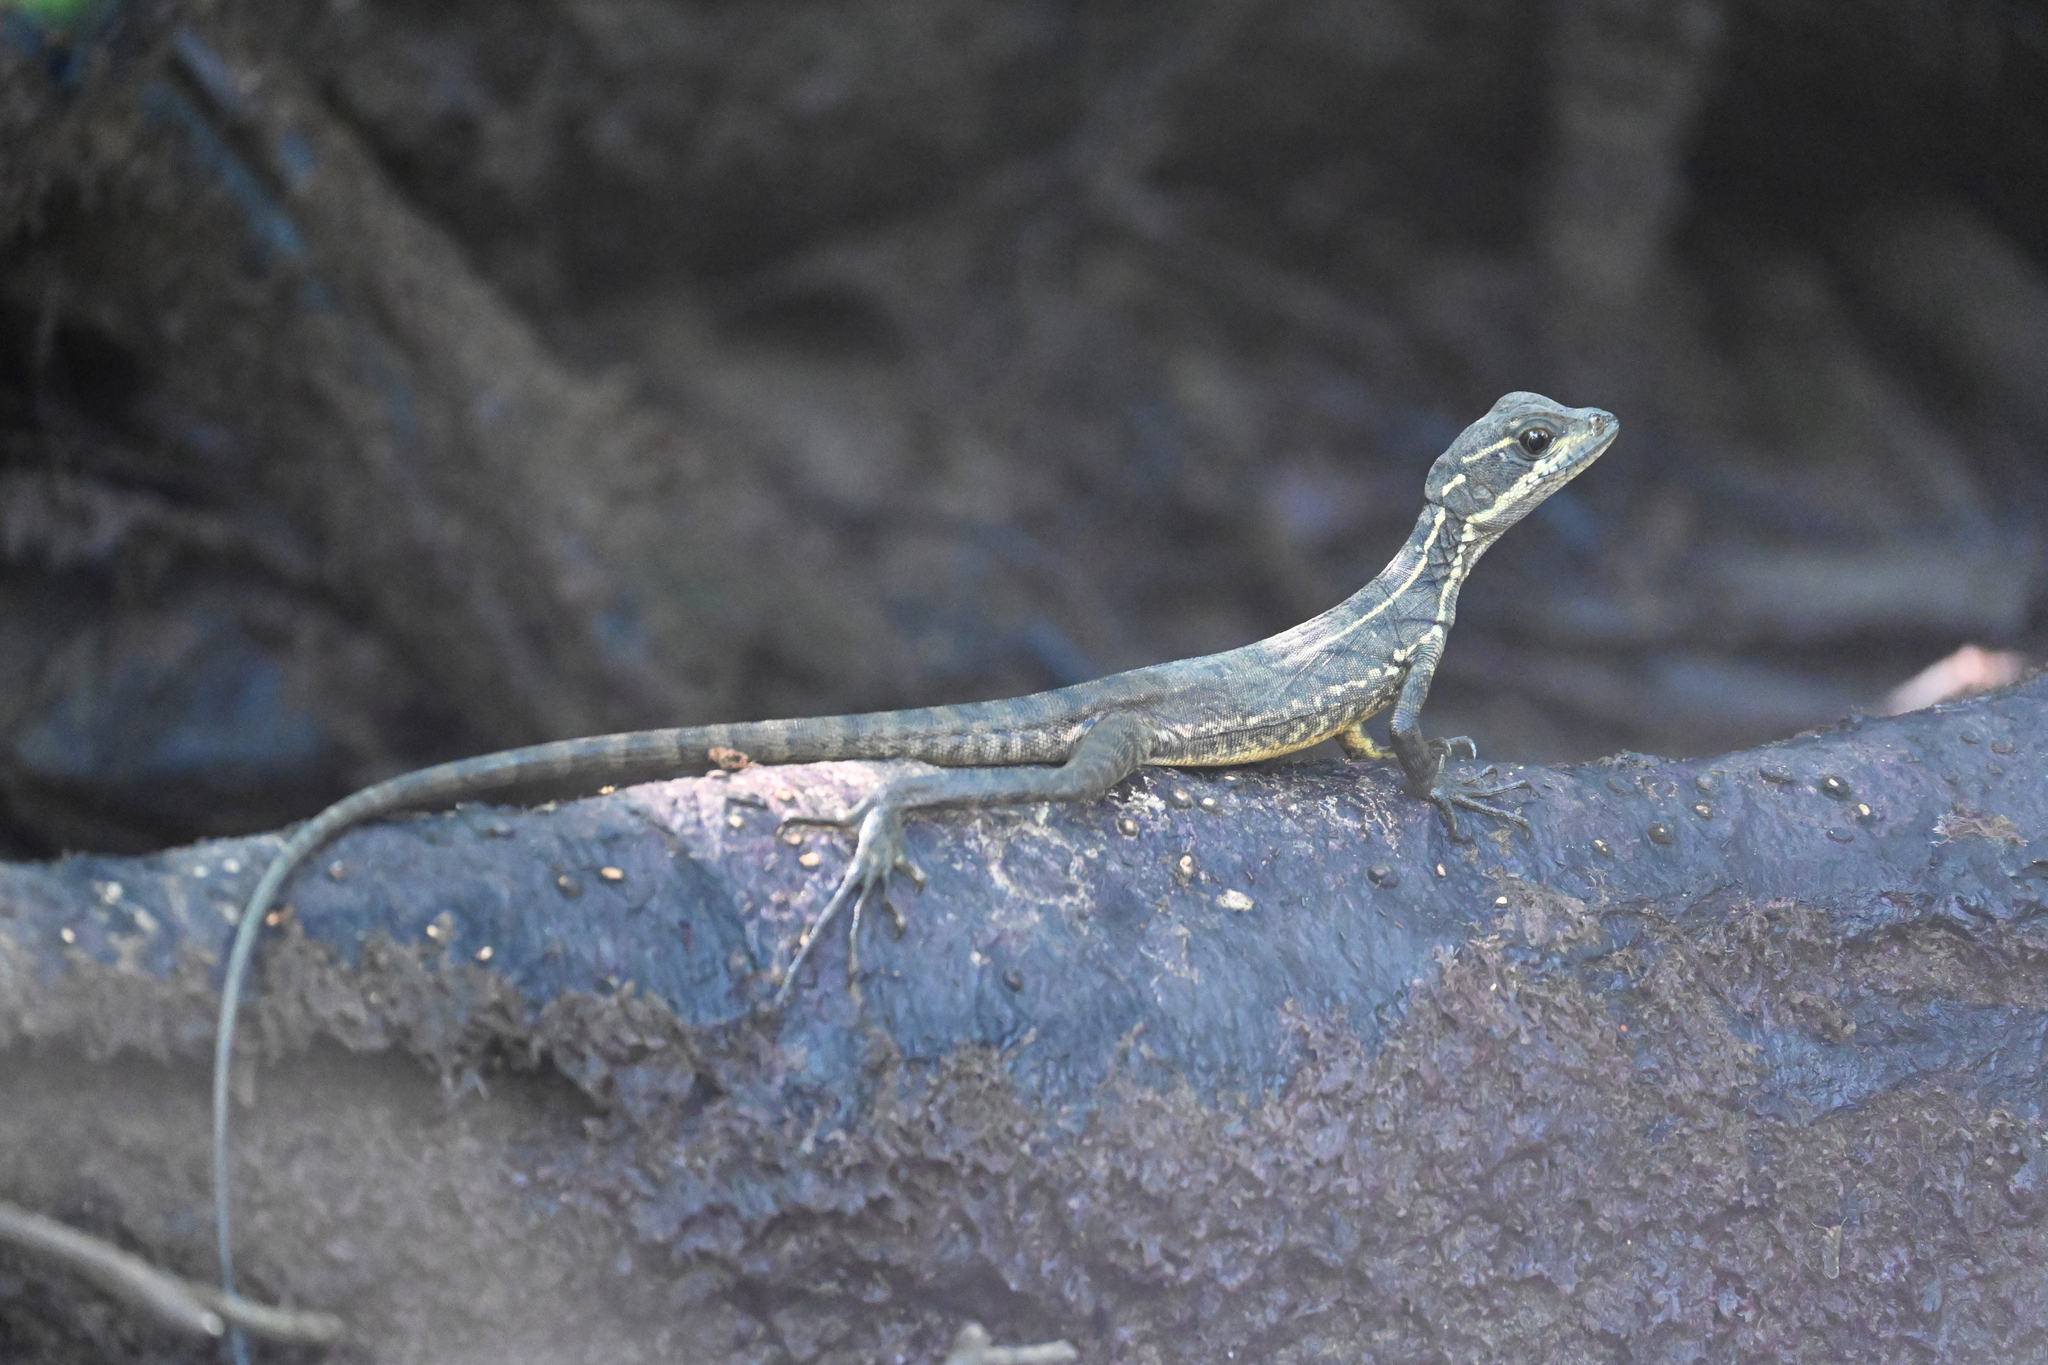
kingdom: Animalia
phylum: Chordata
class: Squamata
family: Corytophanidae
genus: Basiliscus
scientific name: Basiliscus basiliscus
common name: Common basilisk
